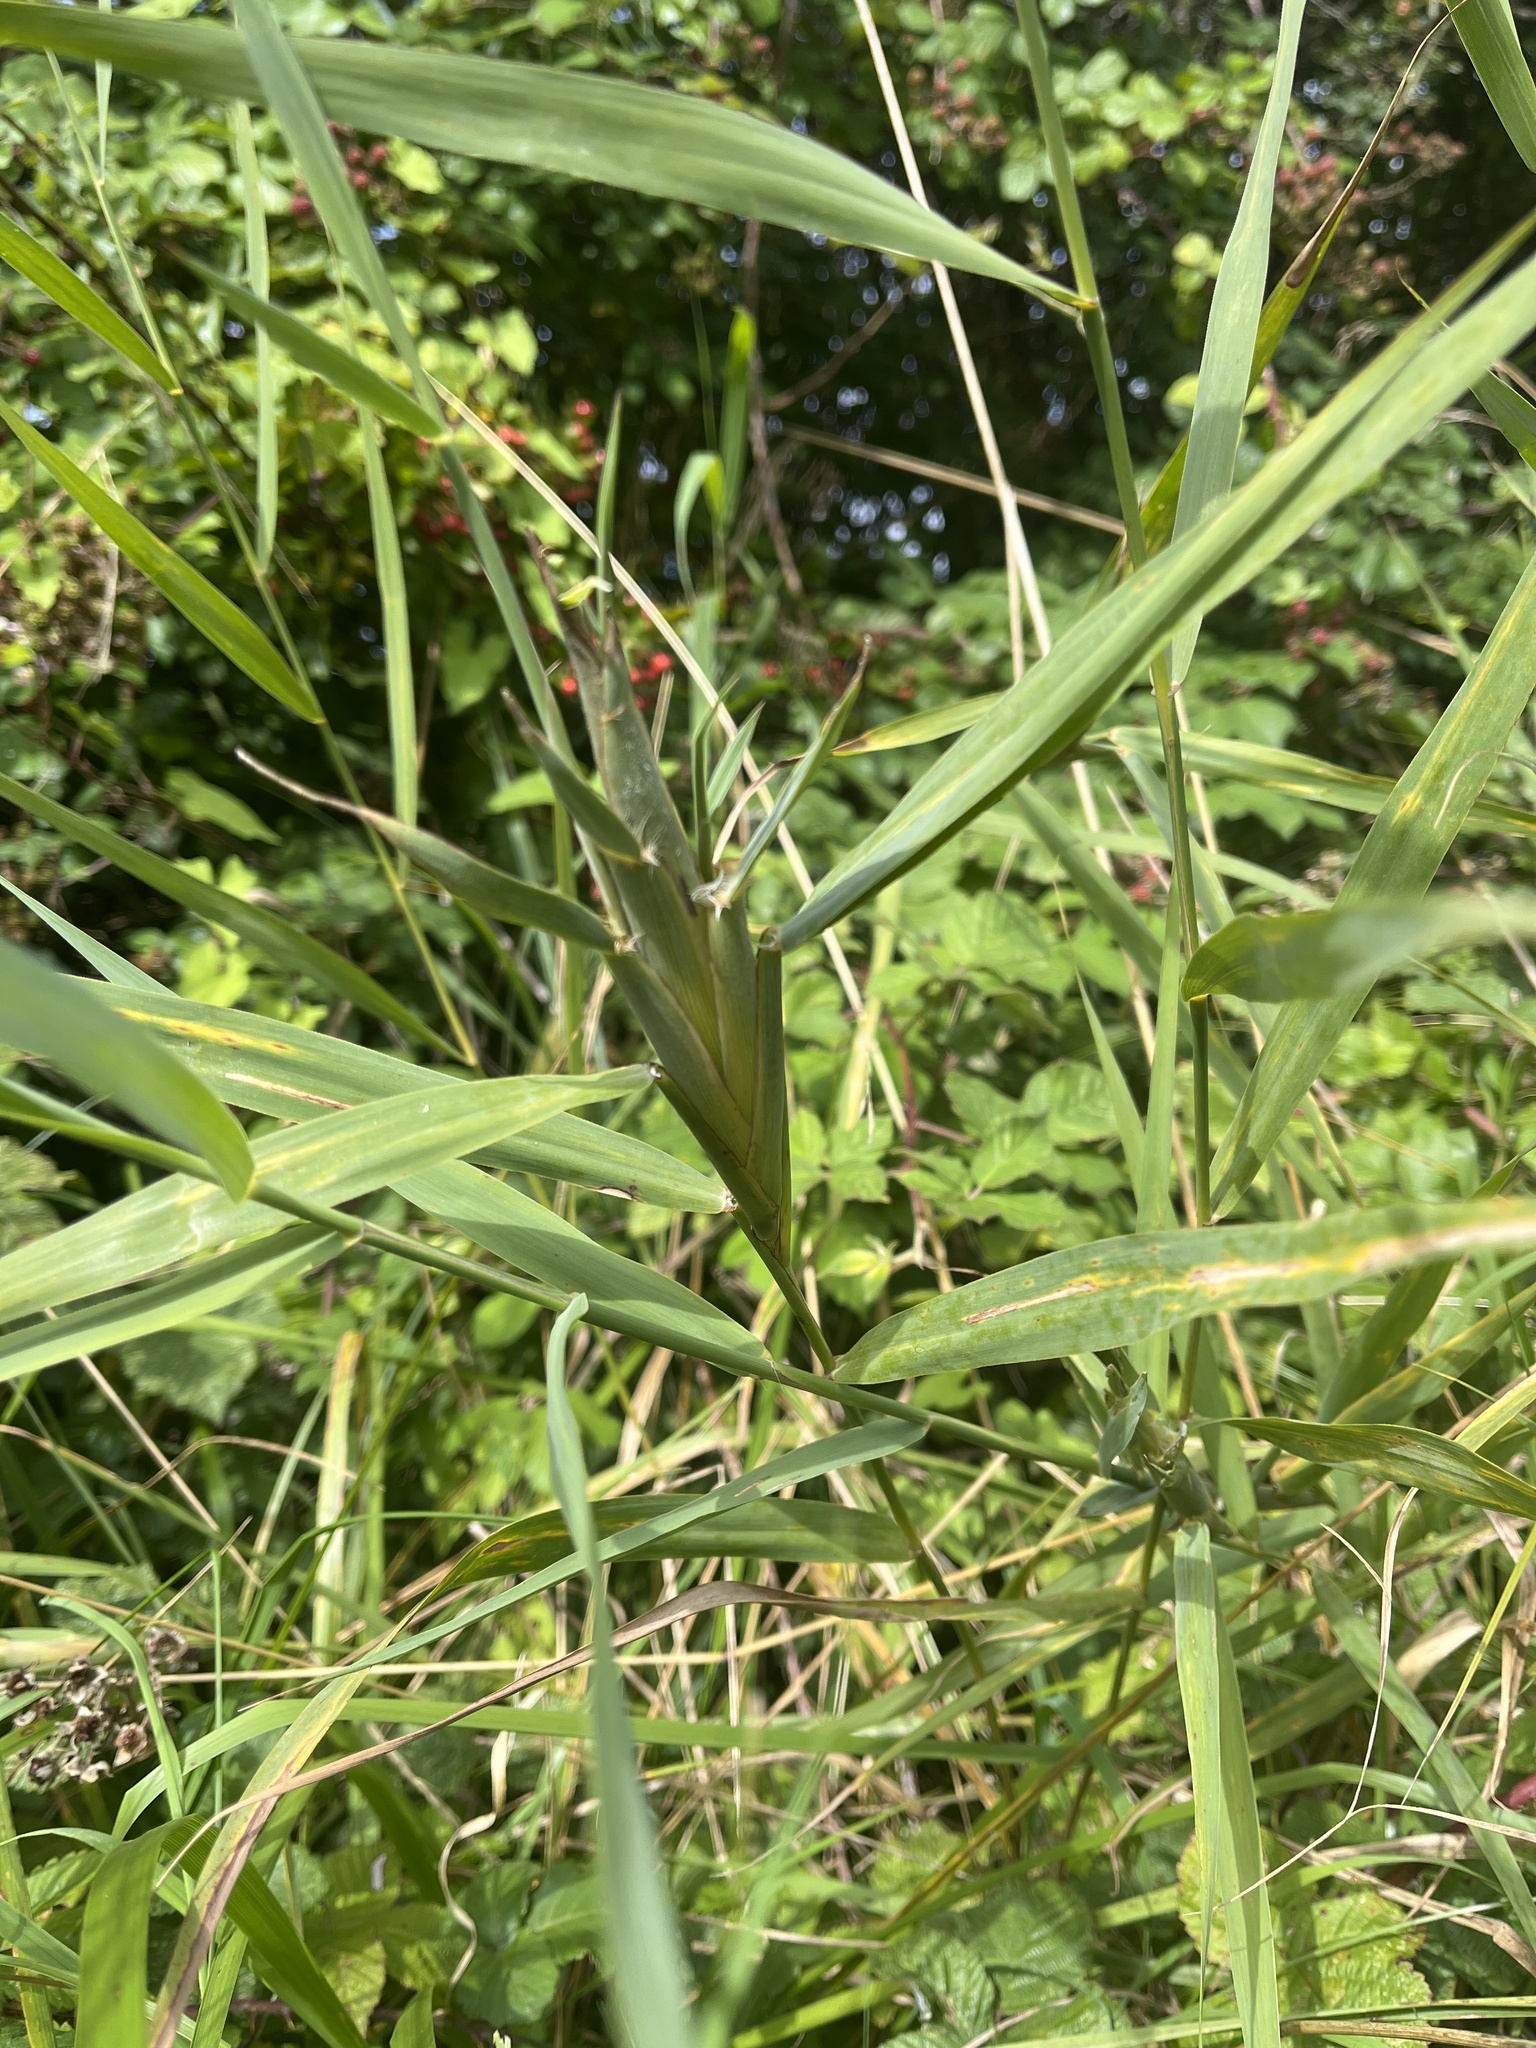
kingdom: Animalia
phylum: Arthropoda
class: Insecta
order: Diptera
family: Chloropidae
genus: Lipara
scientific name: Lipara lucens
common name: Frit fly
